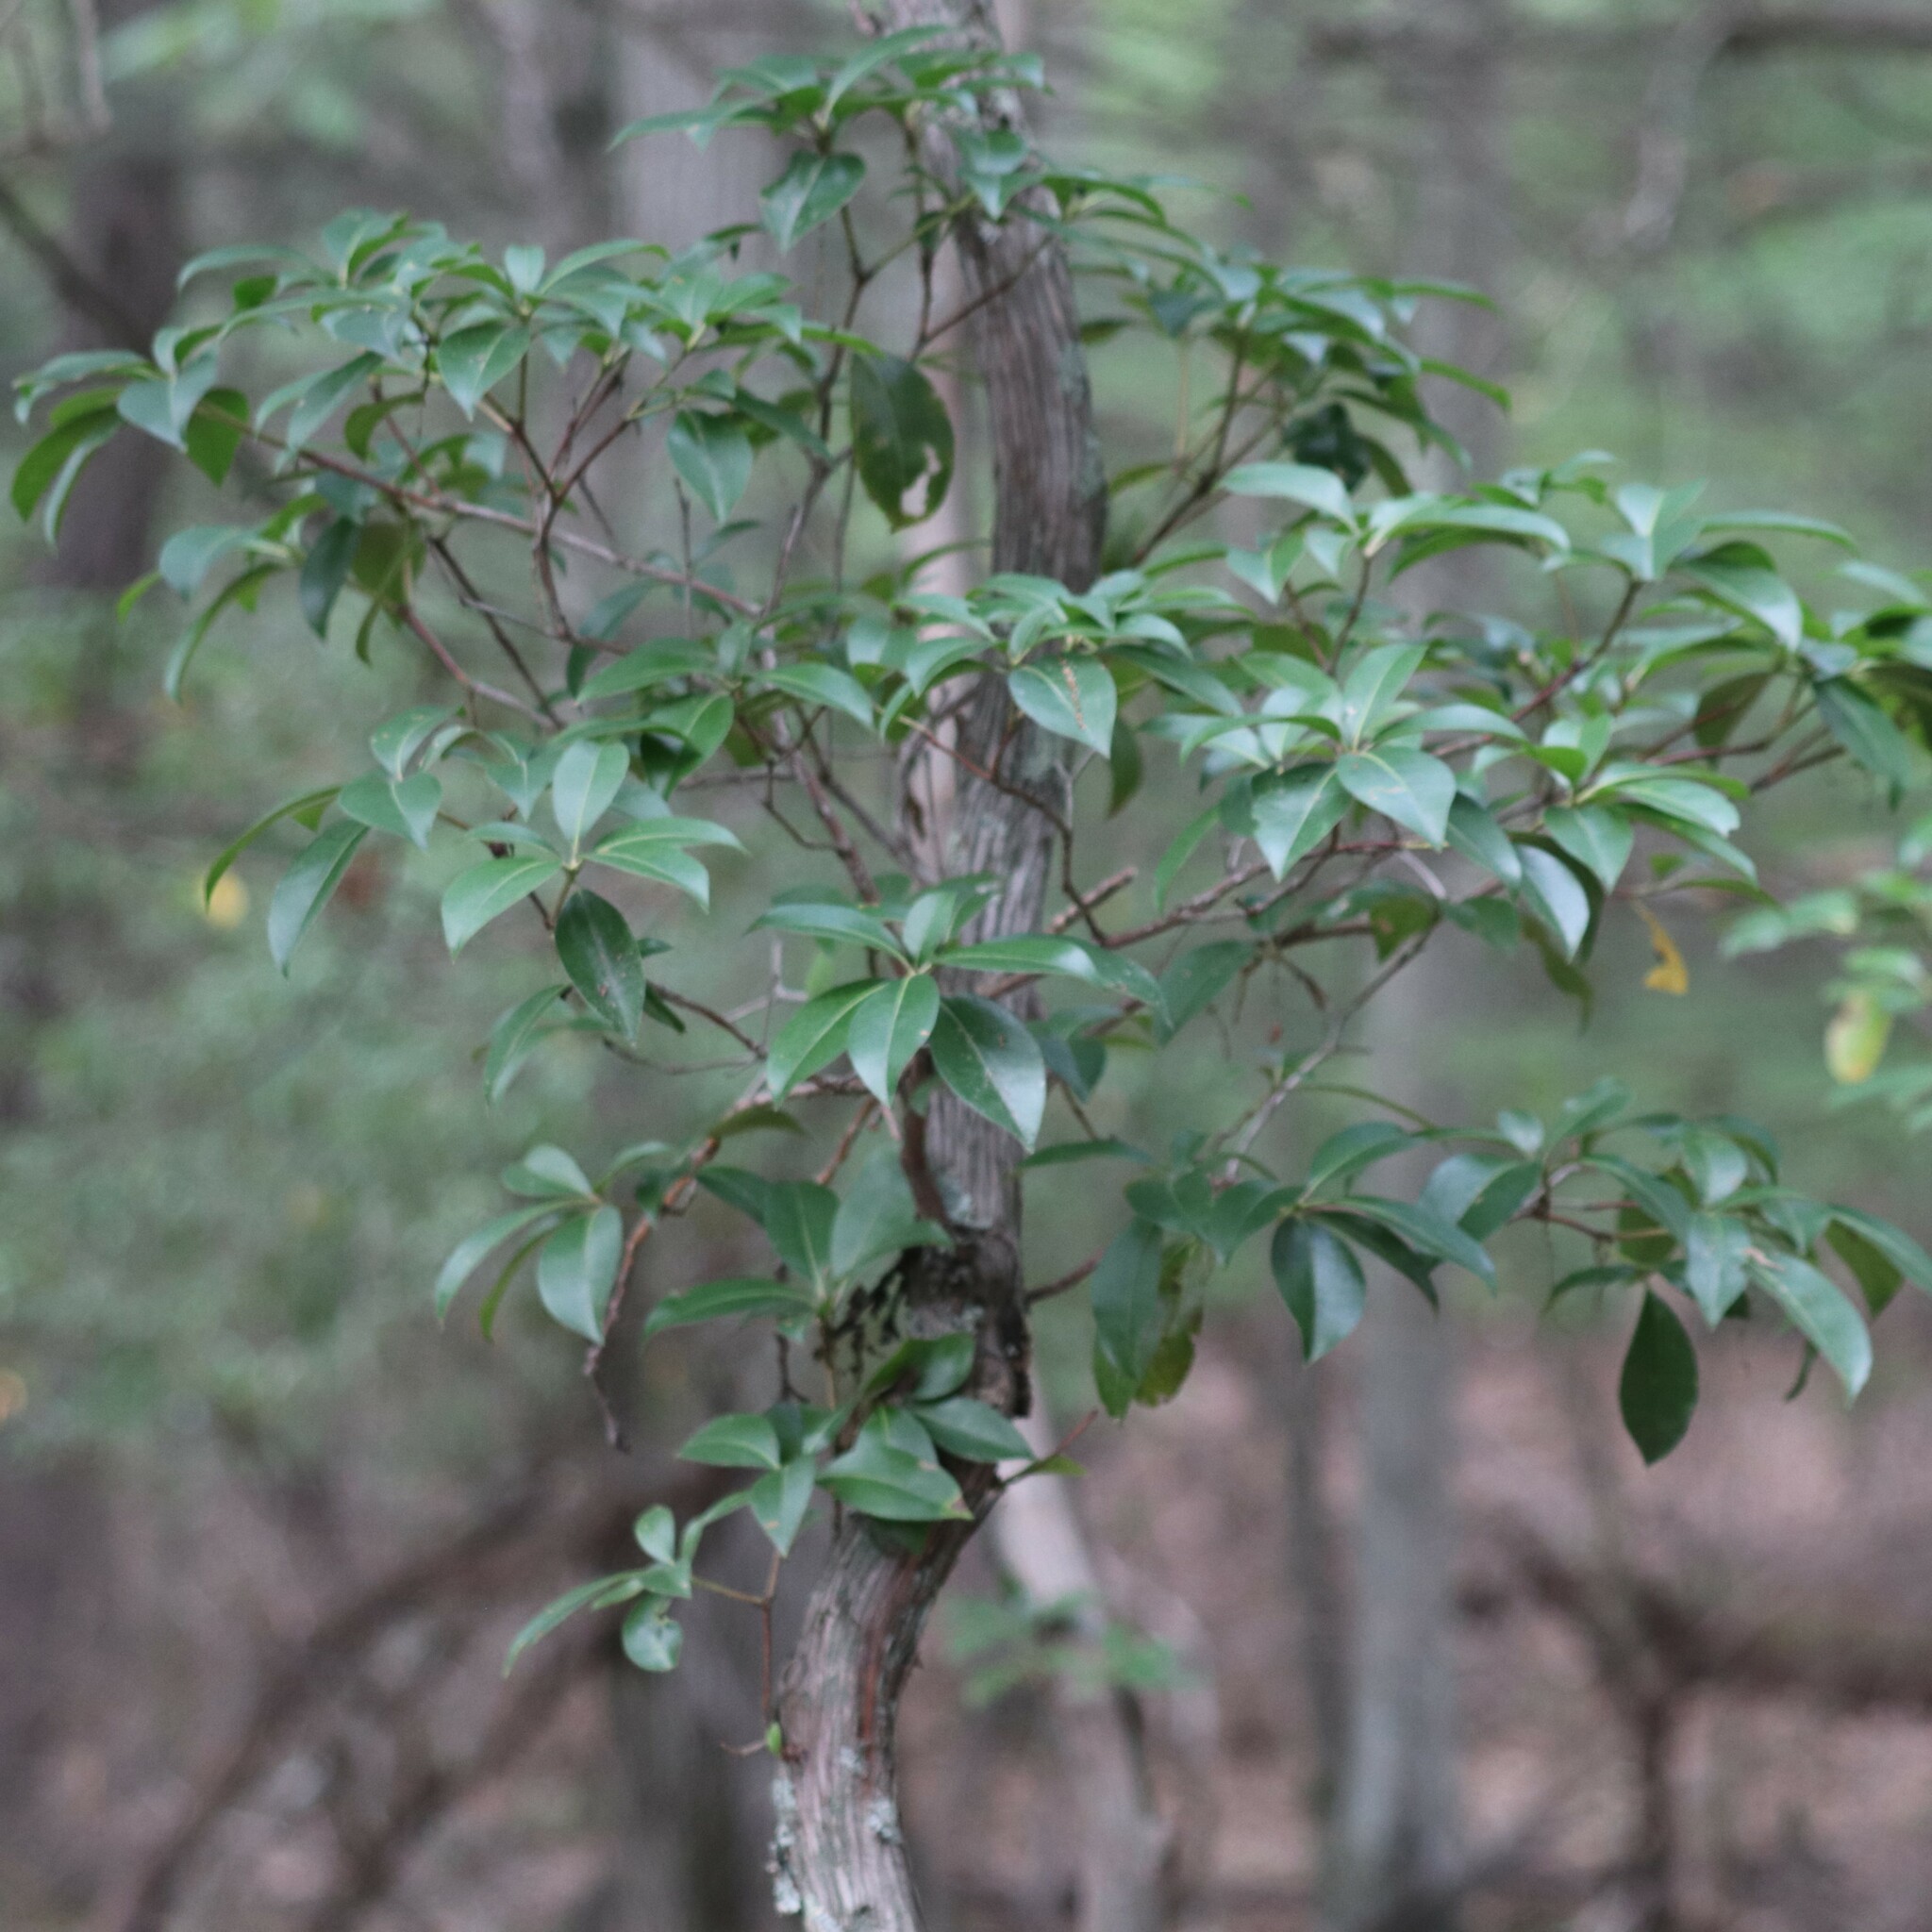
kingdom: Plantae
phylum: Tracheophyta
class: Magnoliopsida
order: Ericales
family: Ericaceae
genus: Kalmia
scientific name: Kalmia latifolia
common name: Mountain-laurel
